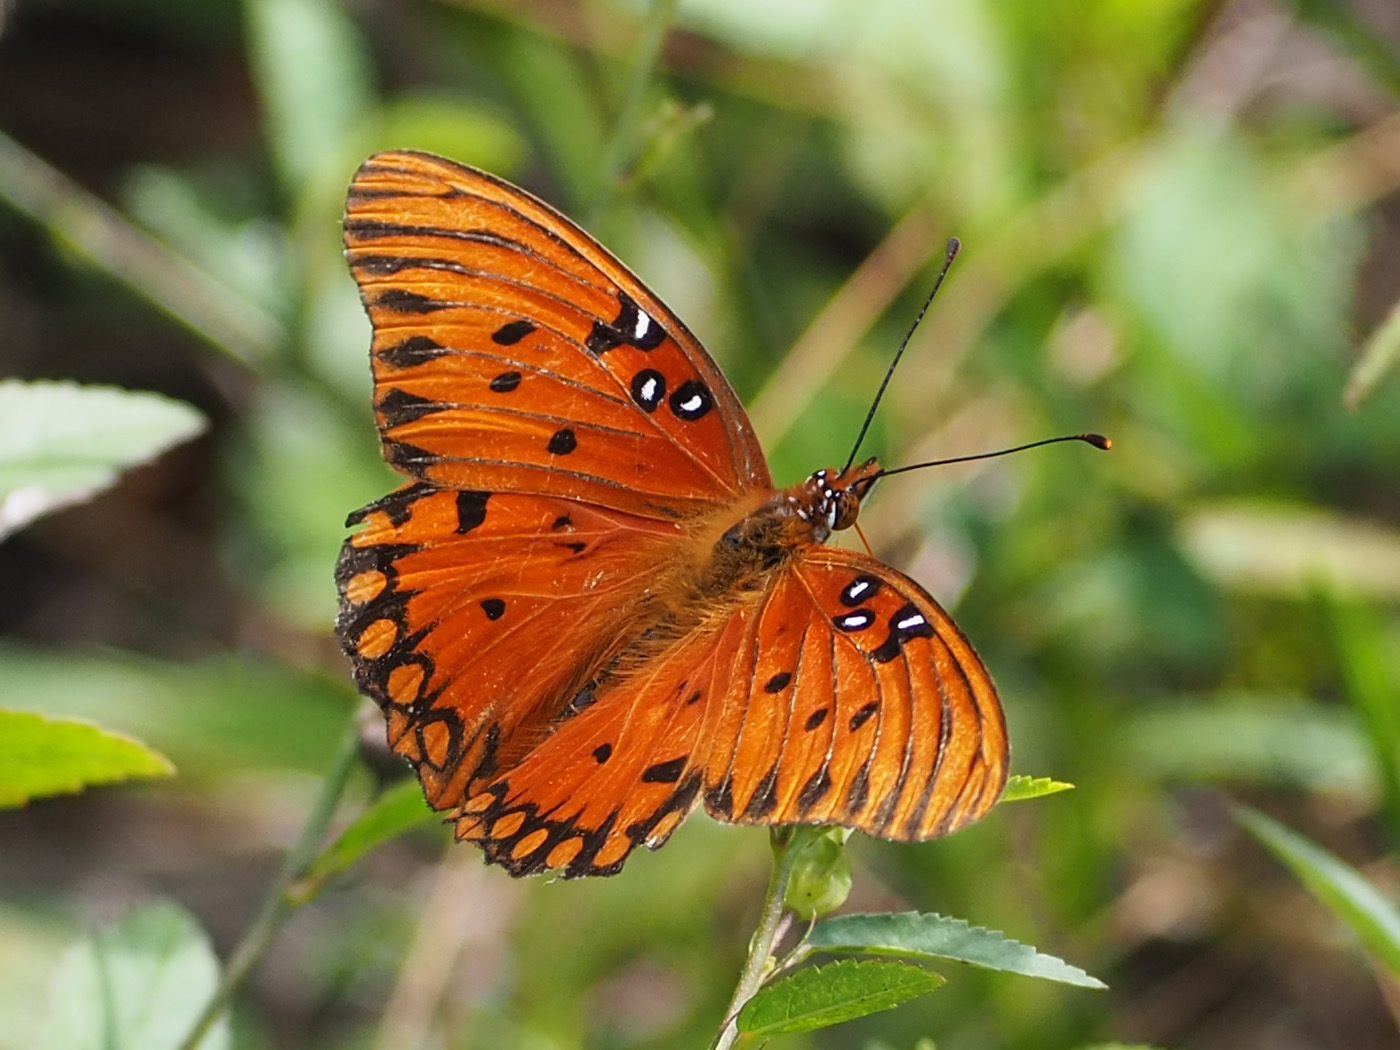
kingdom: Animalia
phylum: Arthropoda
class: Insecta
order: Lepidoptera
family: Nymphalidae
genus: Dione
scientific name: Dione vanillae
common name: Gulf fritillary
